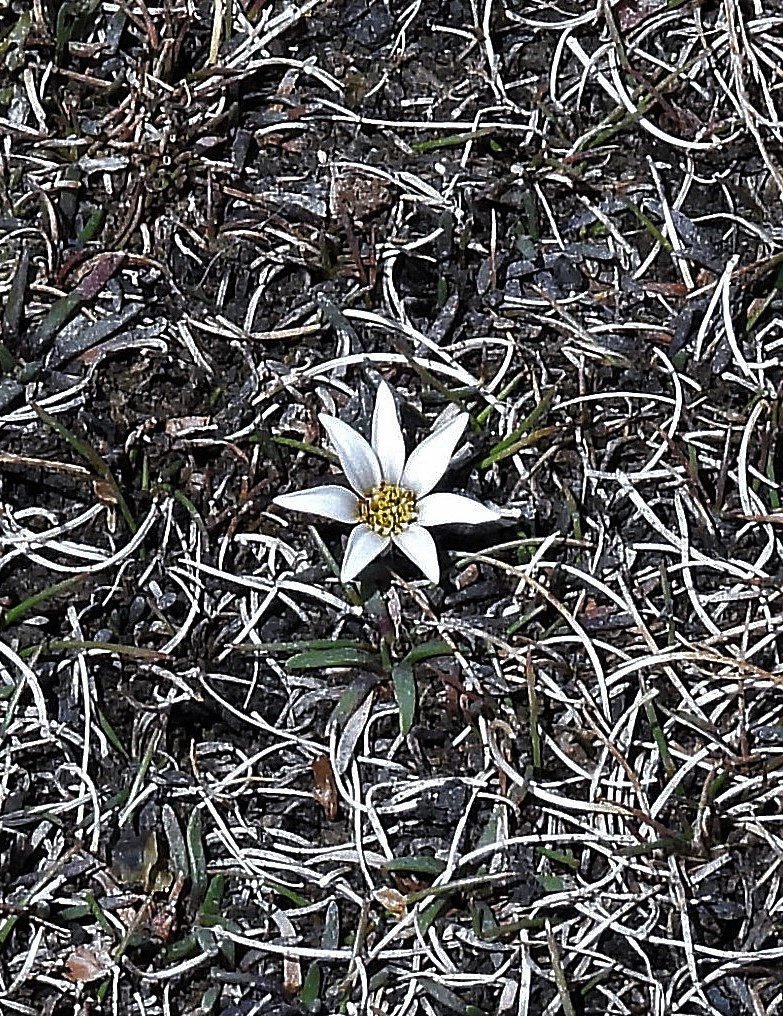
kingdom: Plantae
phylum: Tracheophyta
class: Magnoliopsida
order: Asterales
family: Asteraceae
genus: Rockhausenia
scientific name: Rockhausenia pygmaea
